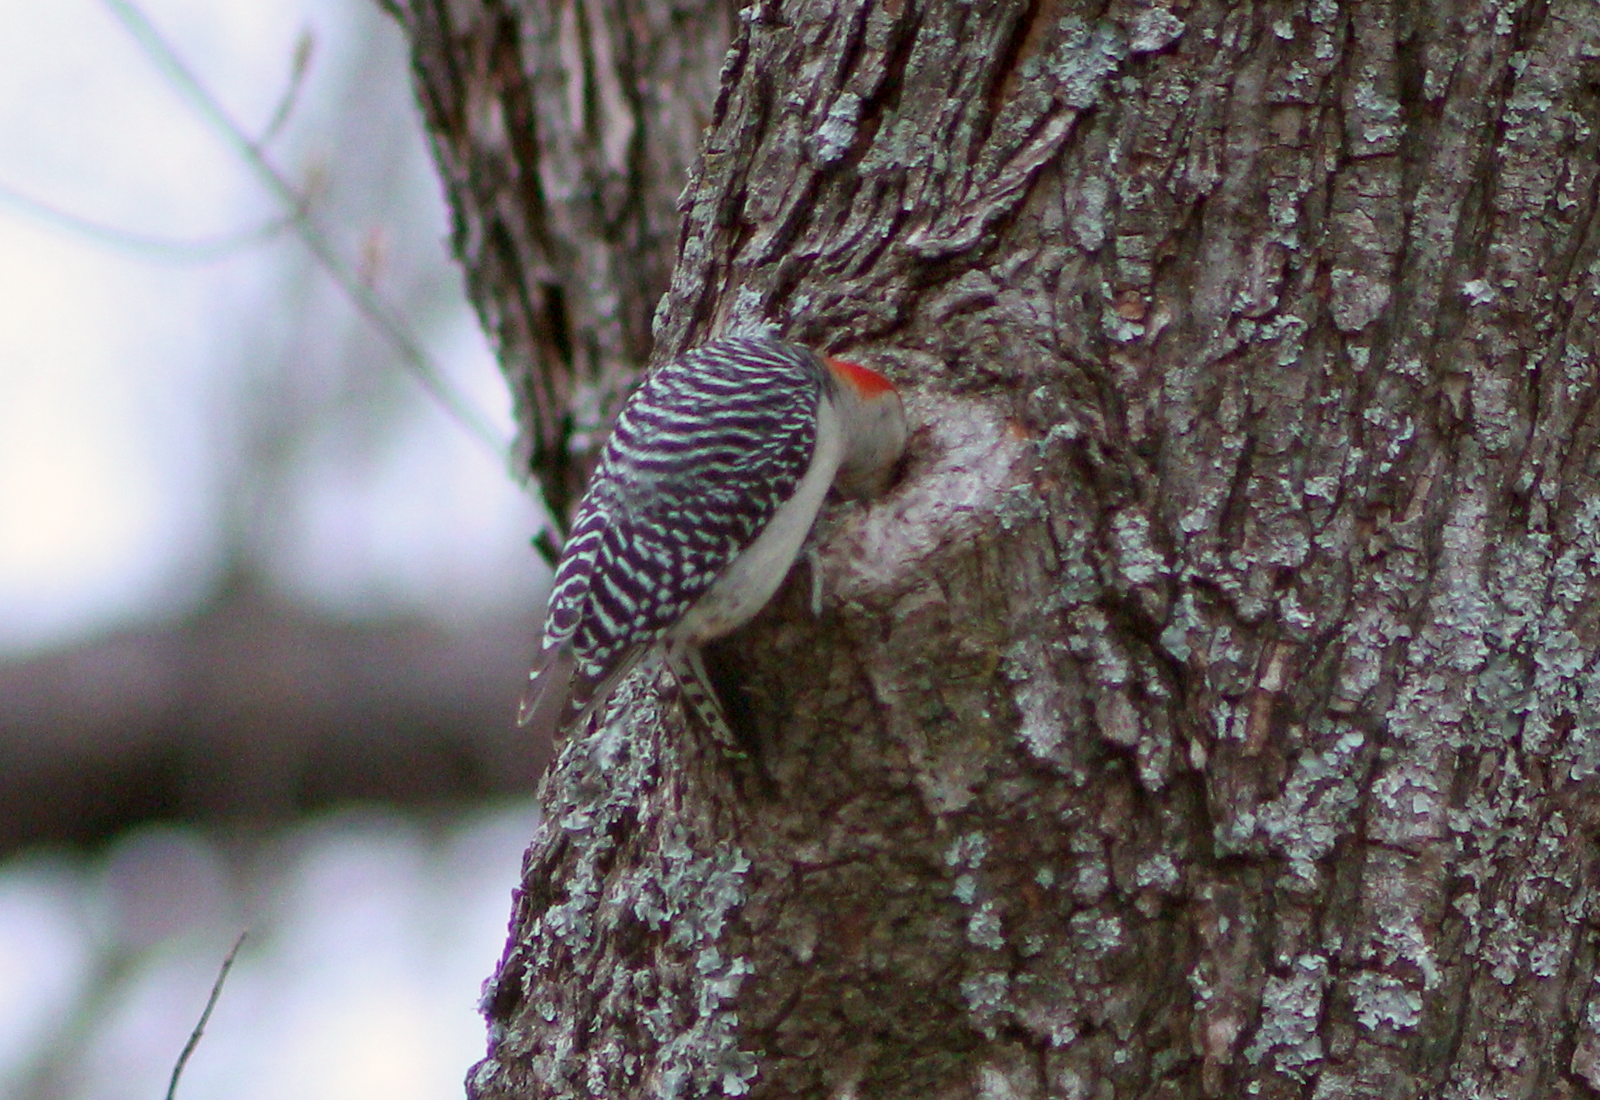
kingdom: Animalia
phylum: Chordata
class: Aves
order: Piciformes
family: Picidae
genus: Melanerpes
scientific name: Melanerpes carolinus
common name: Red-bellied woodpecker
